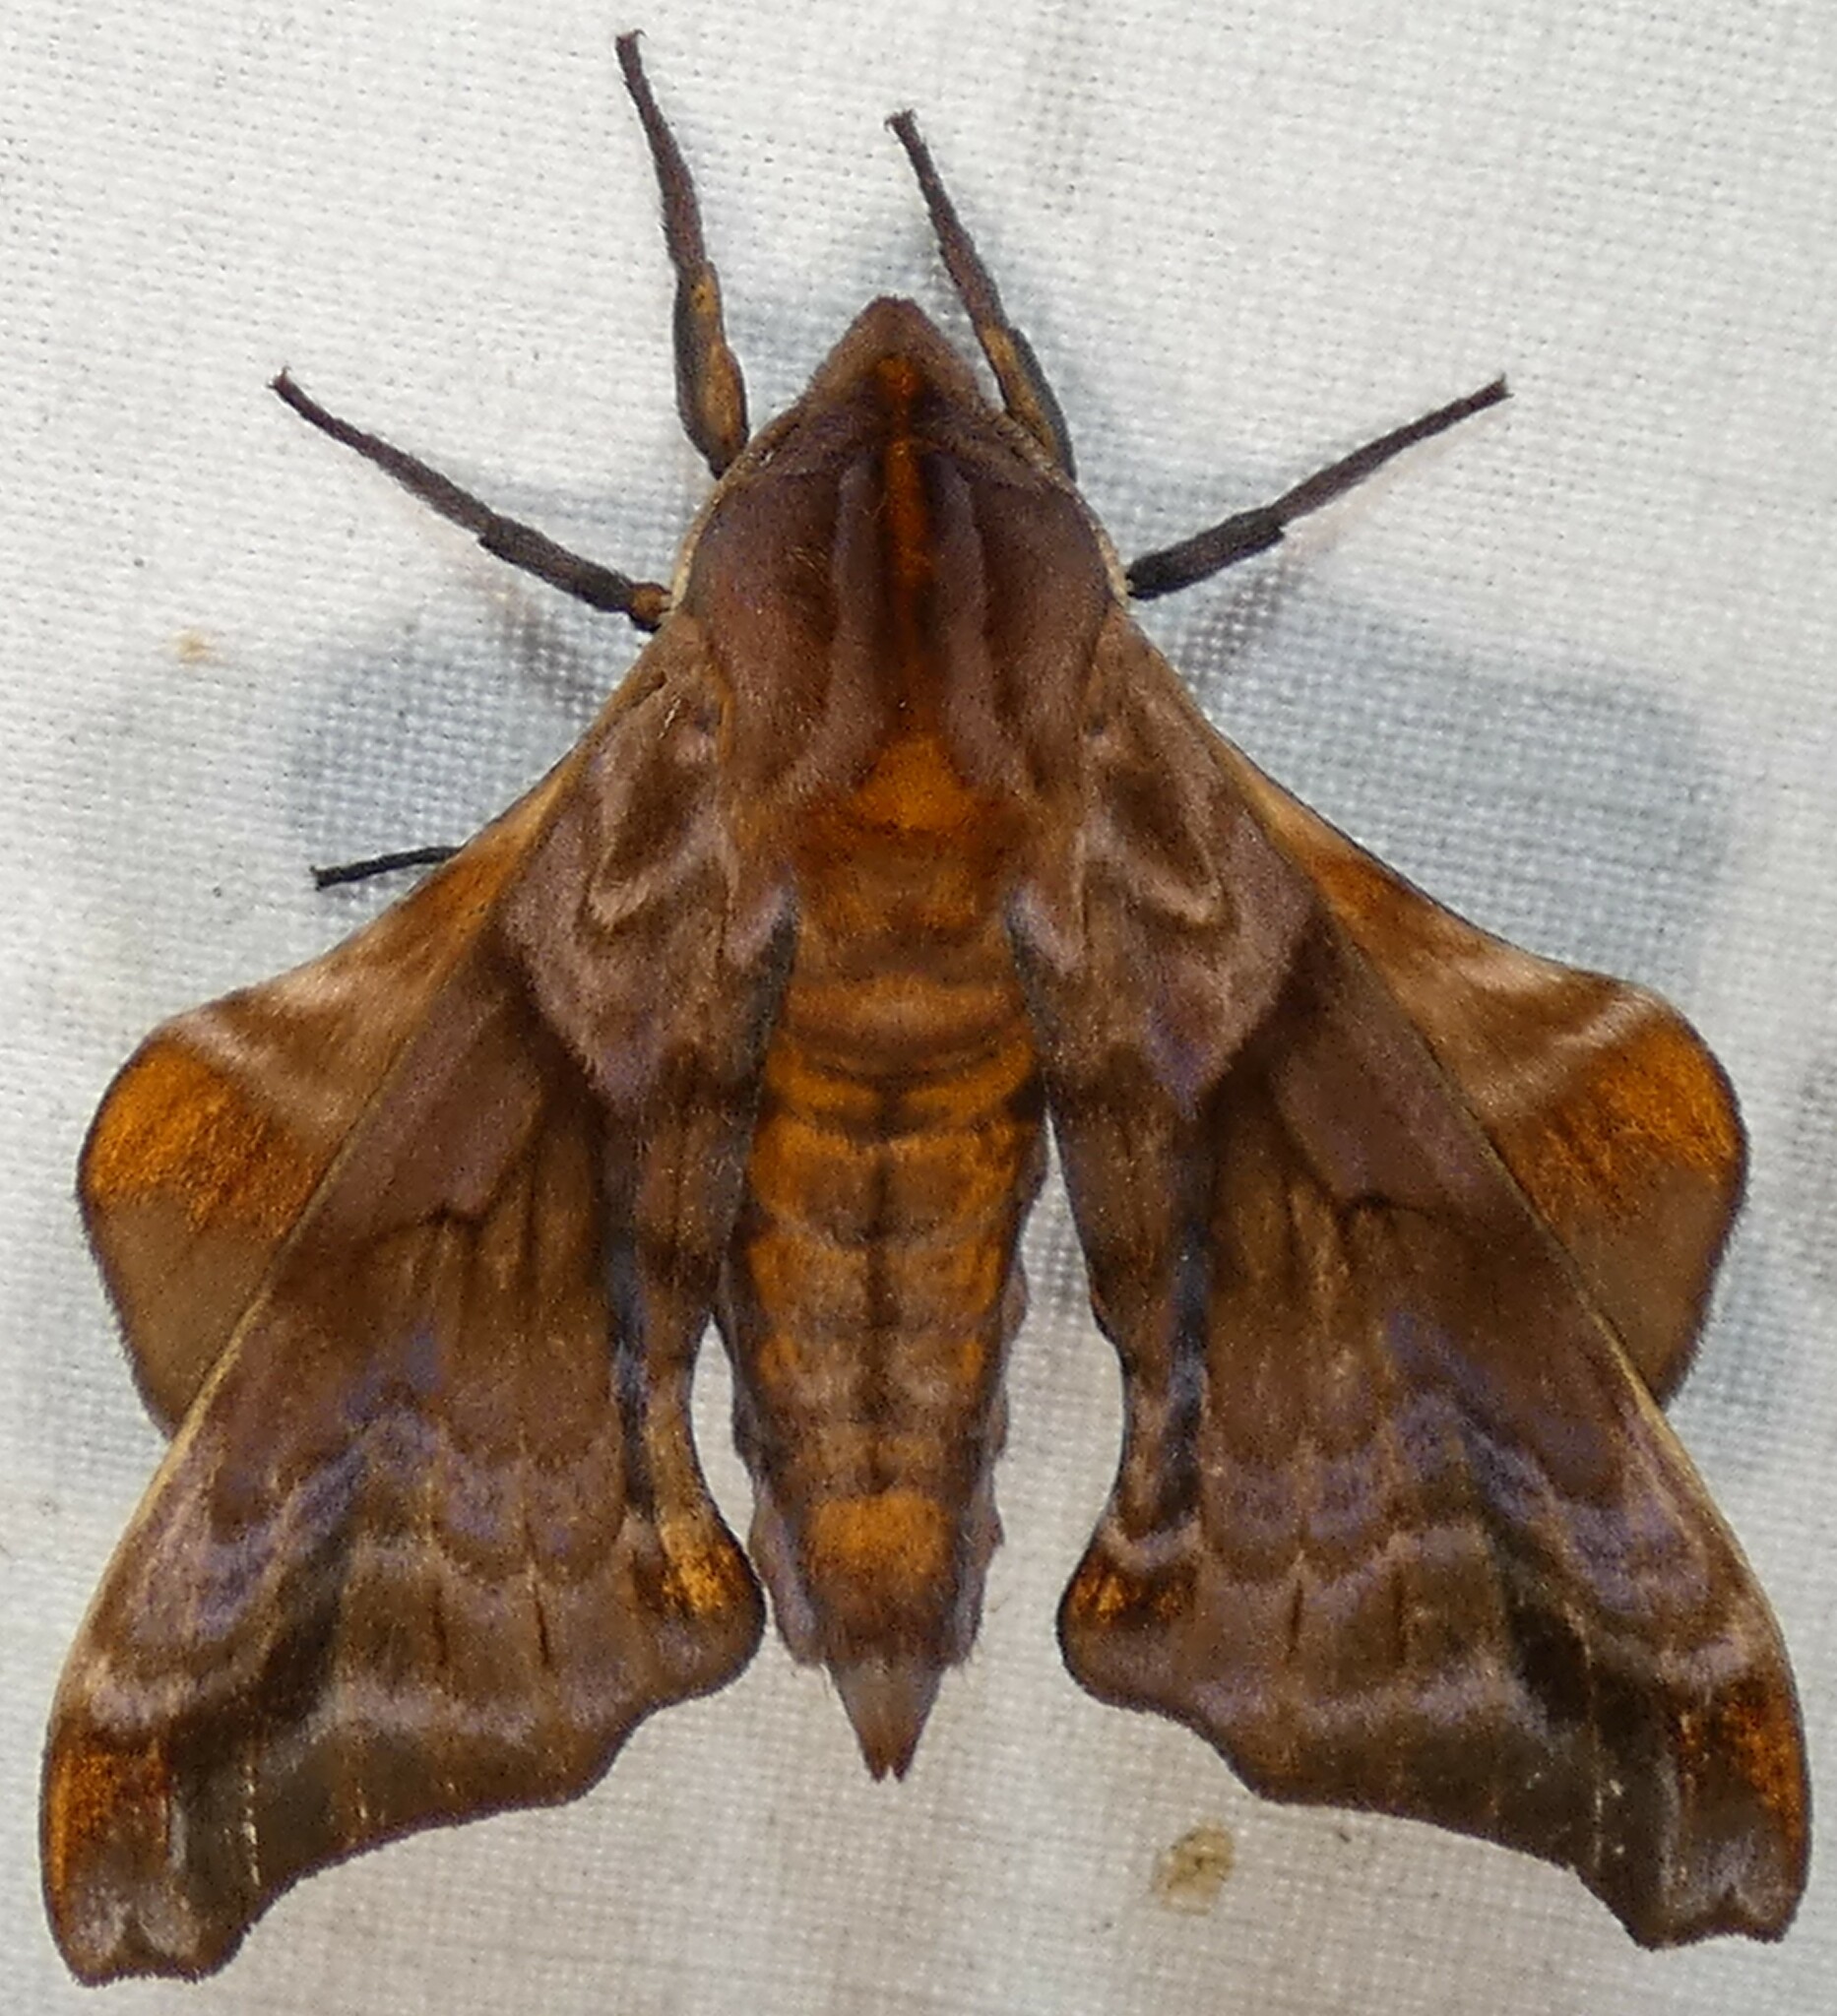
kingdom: Animalia
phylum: Arthropoda
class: Insecta
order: Lepidoptera
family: Sphingidae
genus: Paonias
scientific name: Paonias myops
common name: Small-eyed sphinx
